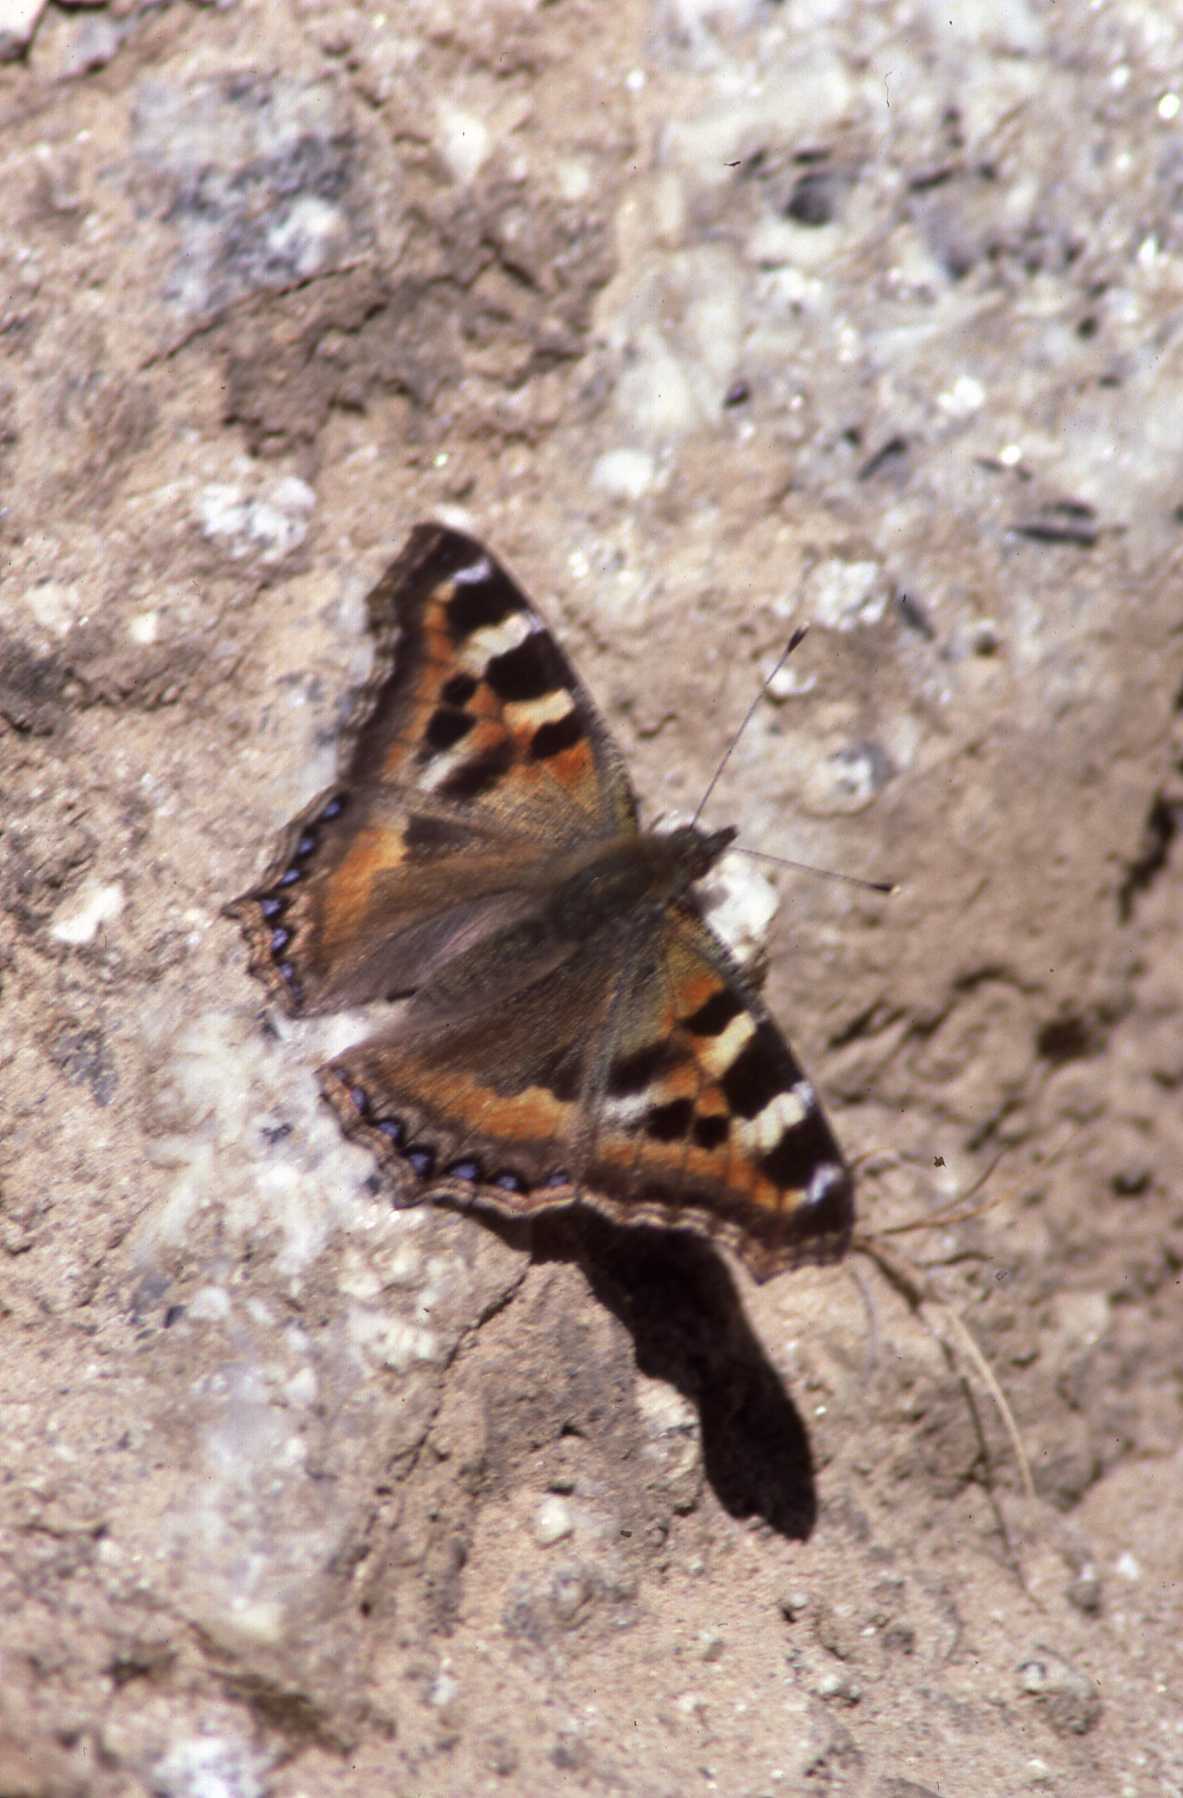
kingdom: Animalia
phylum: Arthropoda
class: Insecta
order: Lepidoptera
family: Nymphalidae
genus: Aglais
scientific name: Aglais caschmirensis
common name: Indian tortoiseshell
